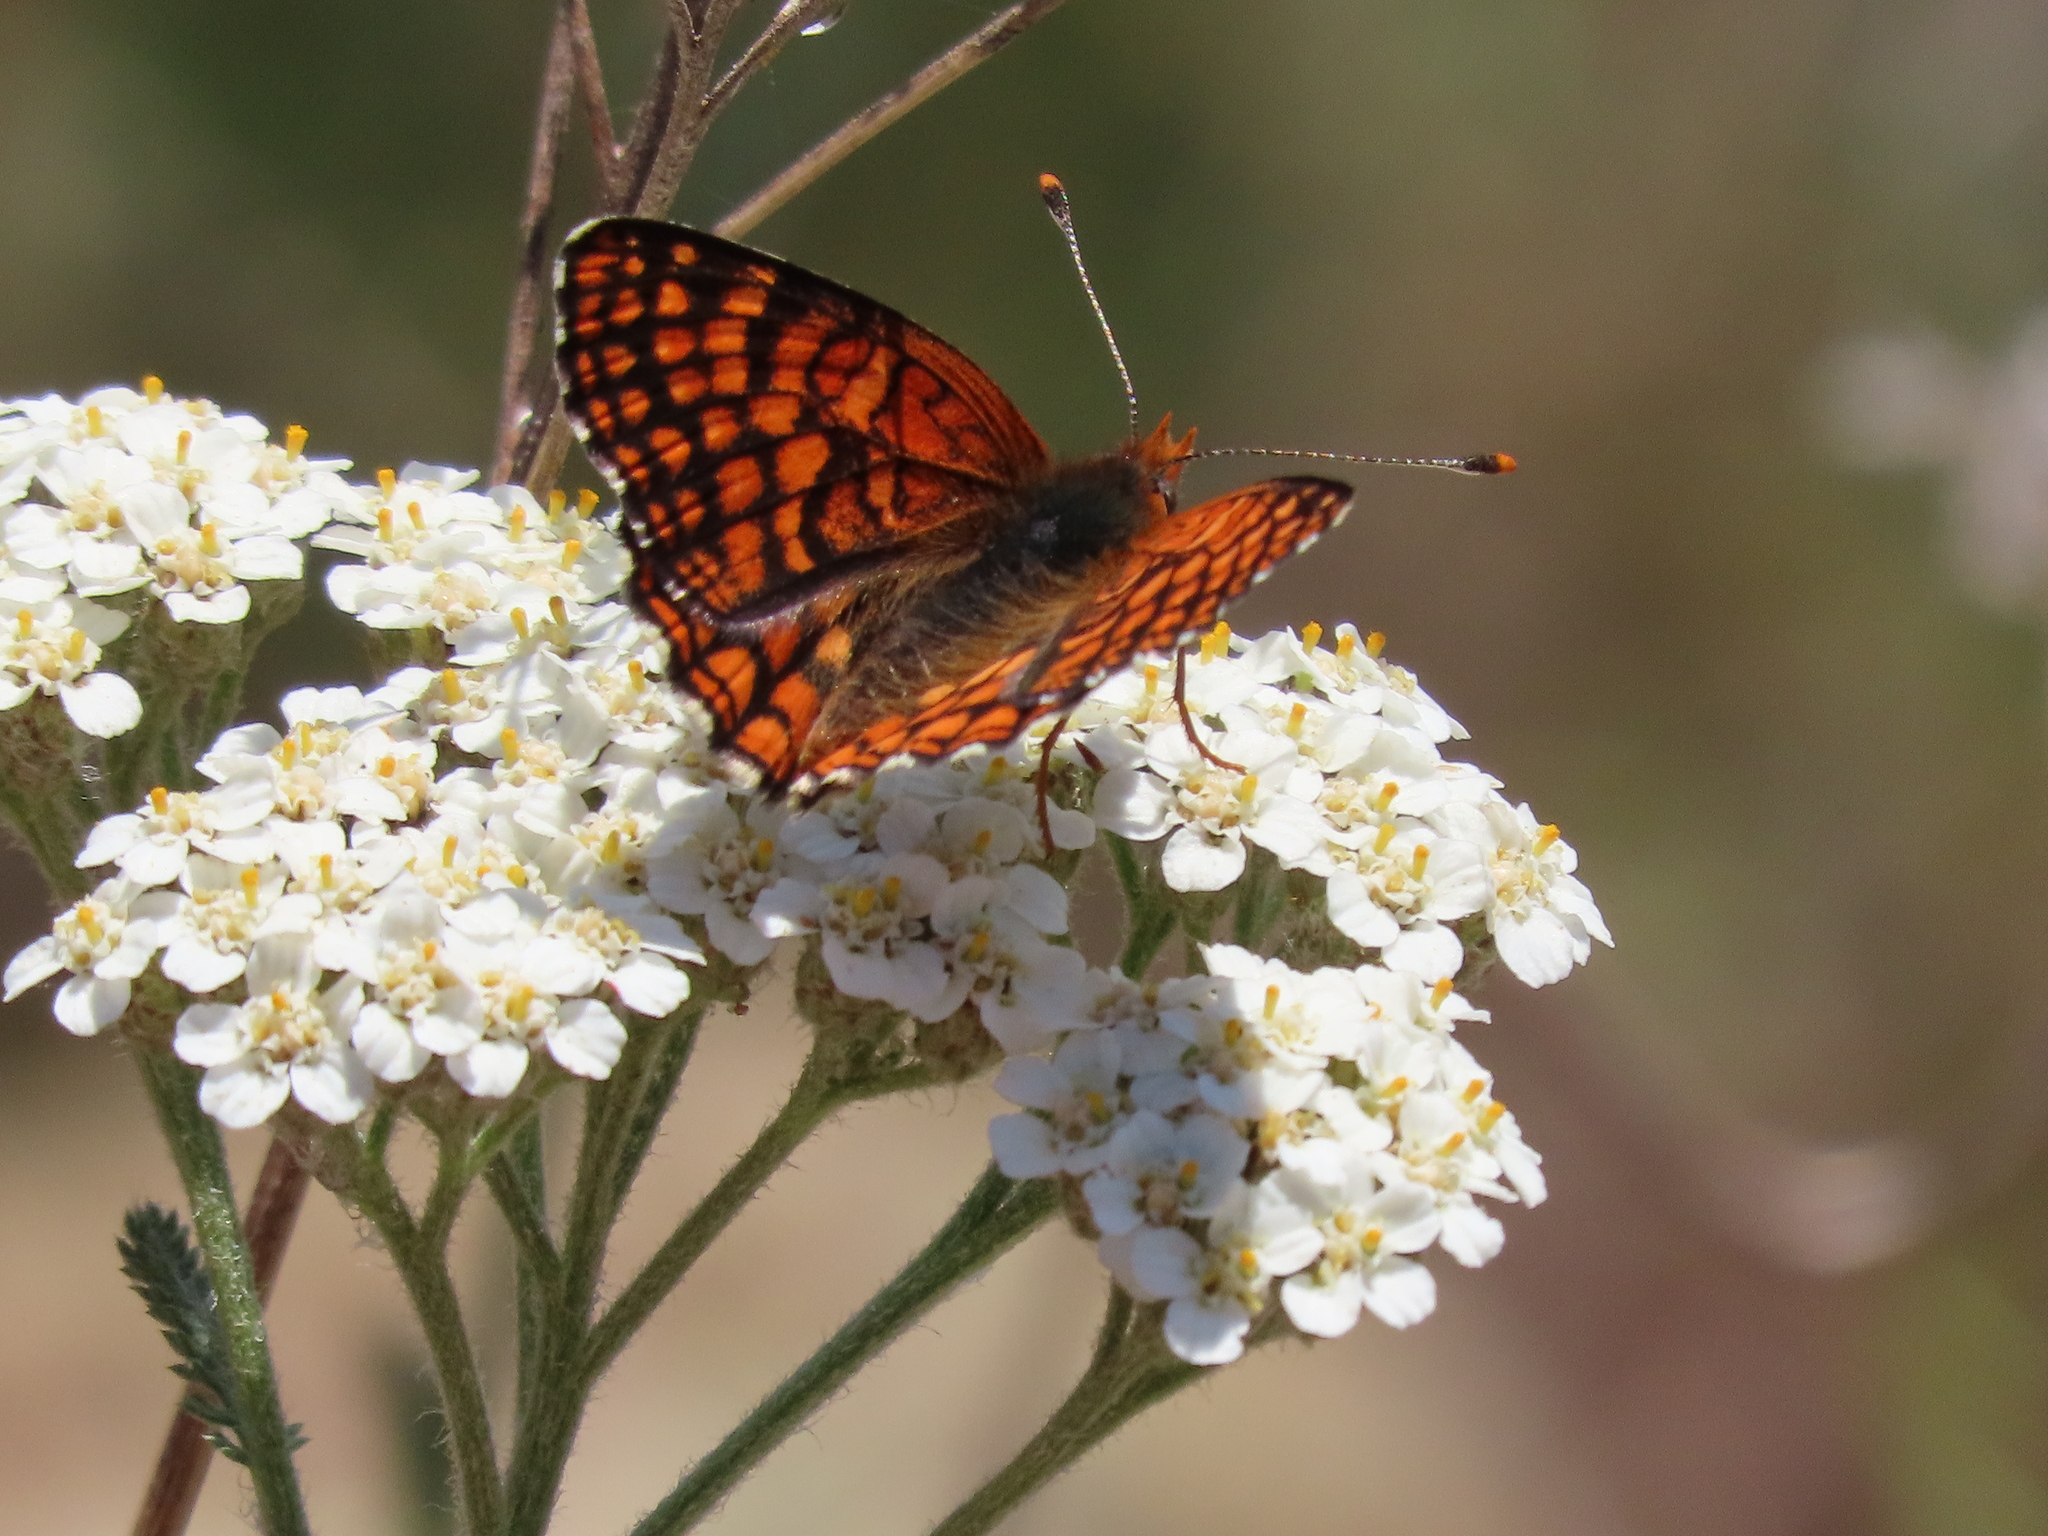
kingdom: Animalia
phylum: Arthropoda
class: Insecta
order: Lepidoptera
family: Nymphalidae
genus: Chlosyne
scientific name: Chlosyne palla
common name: Northern checkerspot
